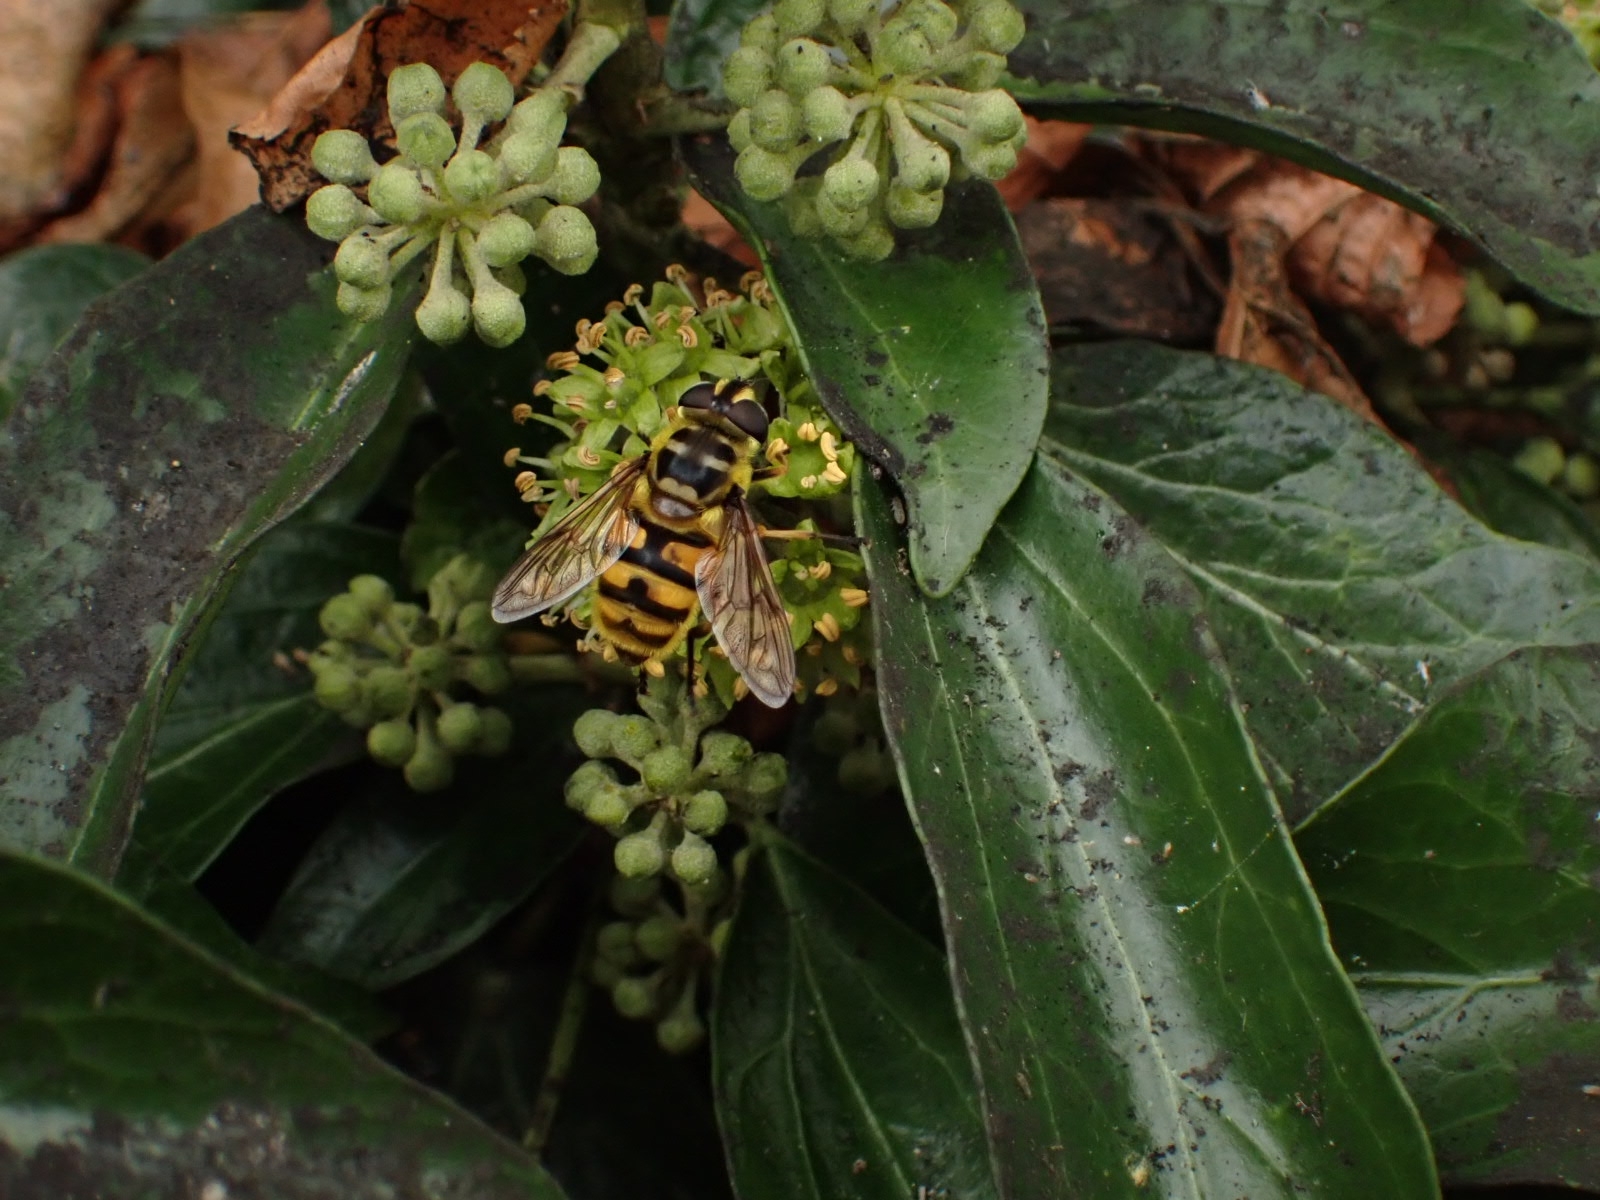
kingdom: Animalia
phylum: Arthropoda
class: Insecta
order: Diptera
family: Syrphidae
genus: Myathropa
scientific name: Myathropa florea
